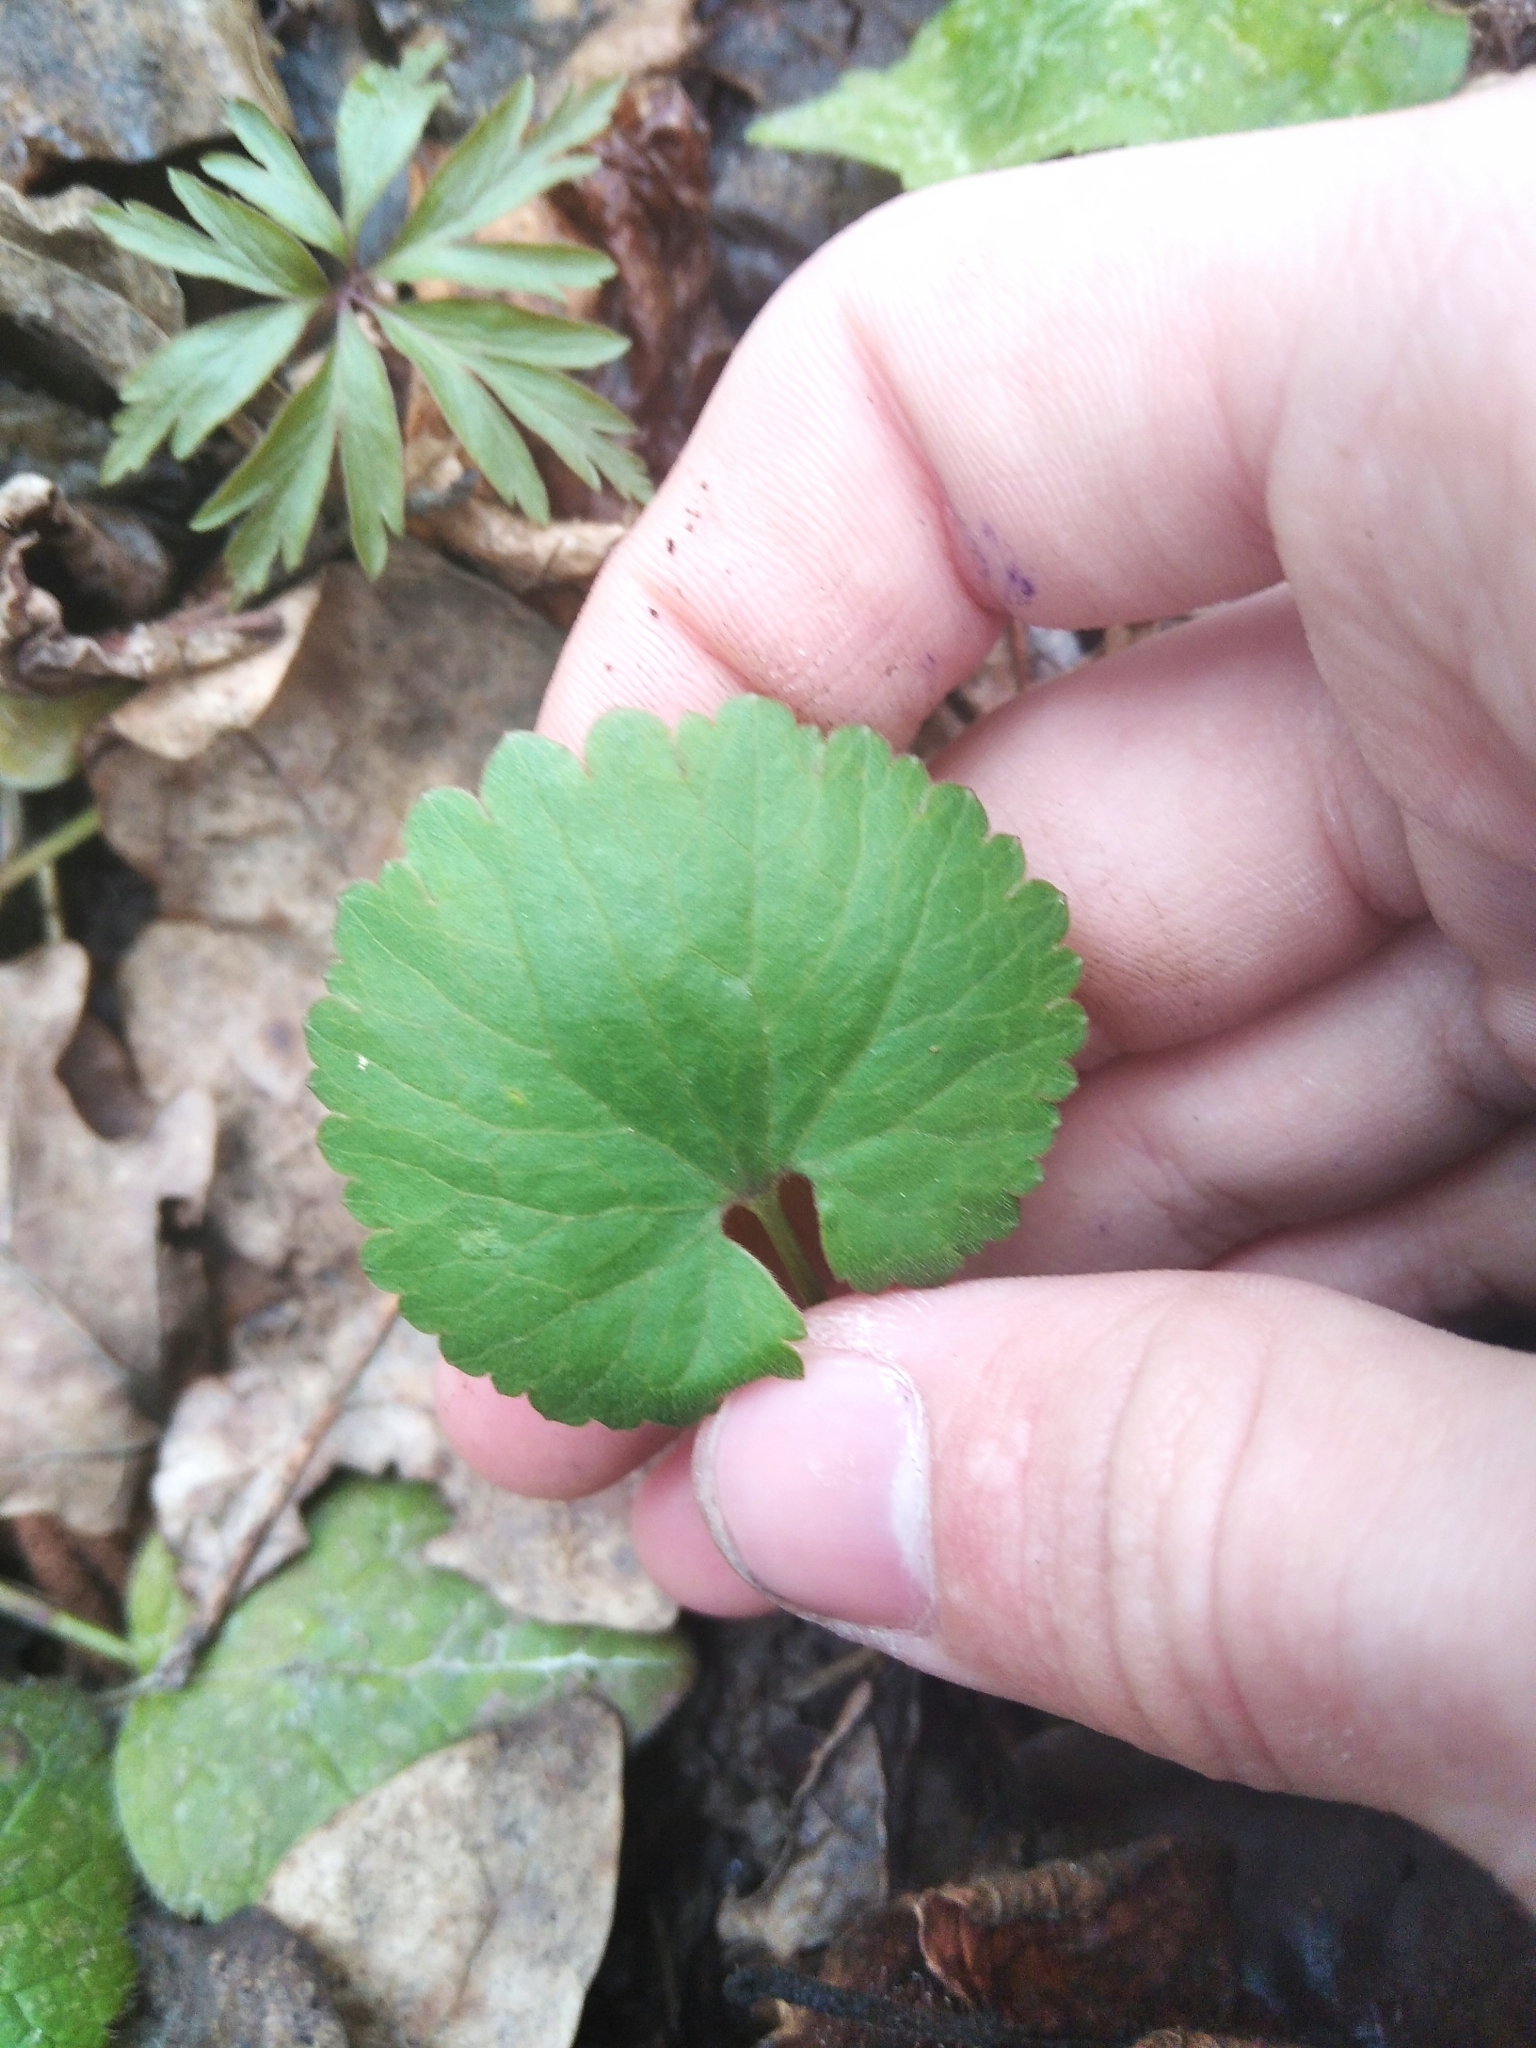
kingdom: Plantae
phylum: Tracheophyta
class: Magnoliopsida
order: Ranunculales
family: Ranunculaceae
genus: Ranunculus
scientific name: Ranunculus cassubicus
